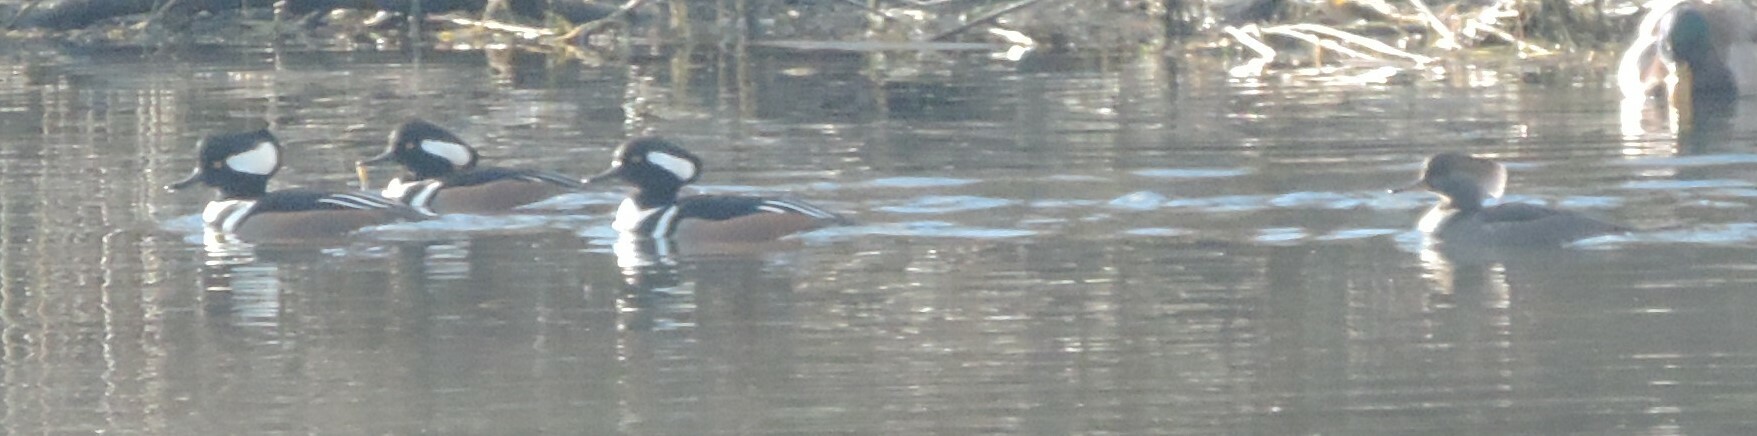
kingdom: Animalia
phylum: Chordata
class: Aves
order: Anseriformes
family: Anatidae
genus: Lophodytes
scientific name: Lophodytes cucullatus
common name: Hooded merganser
